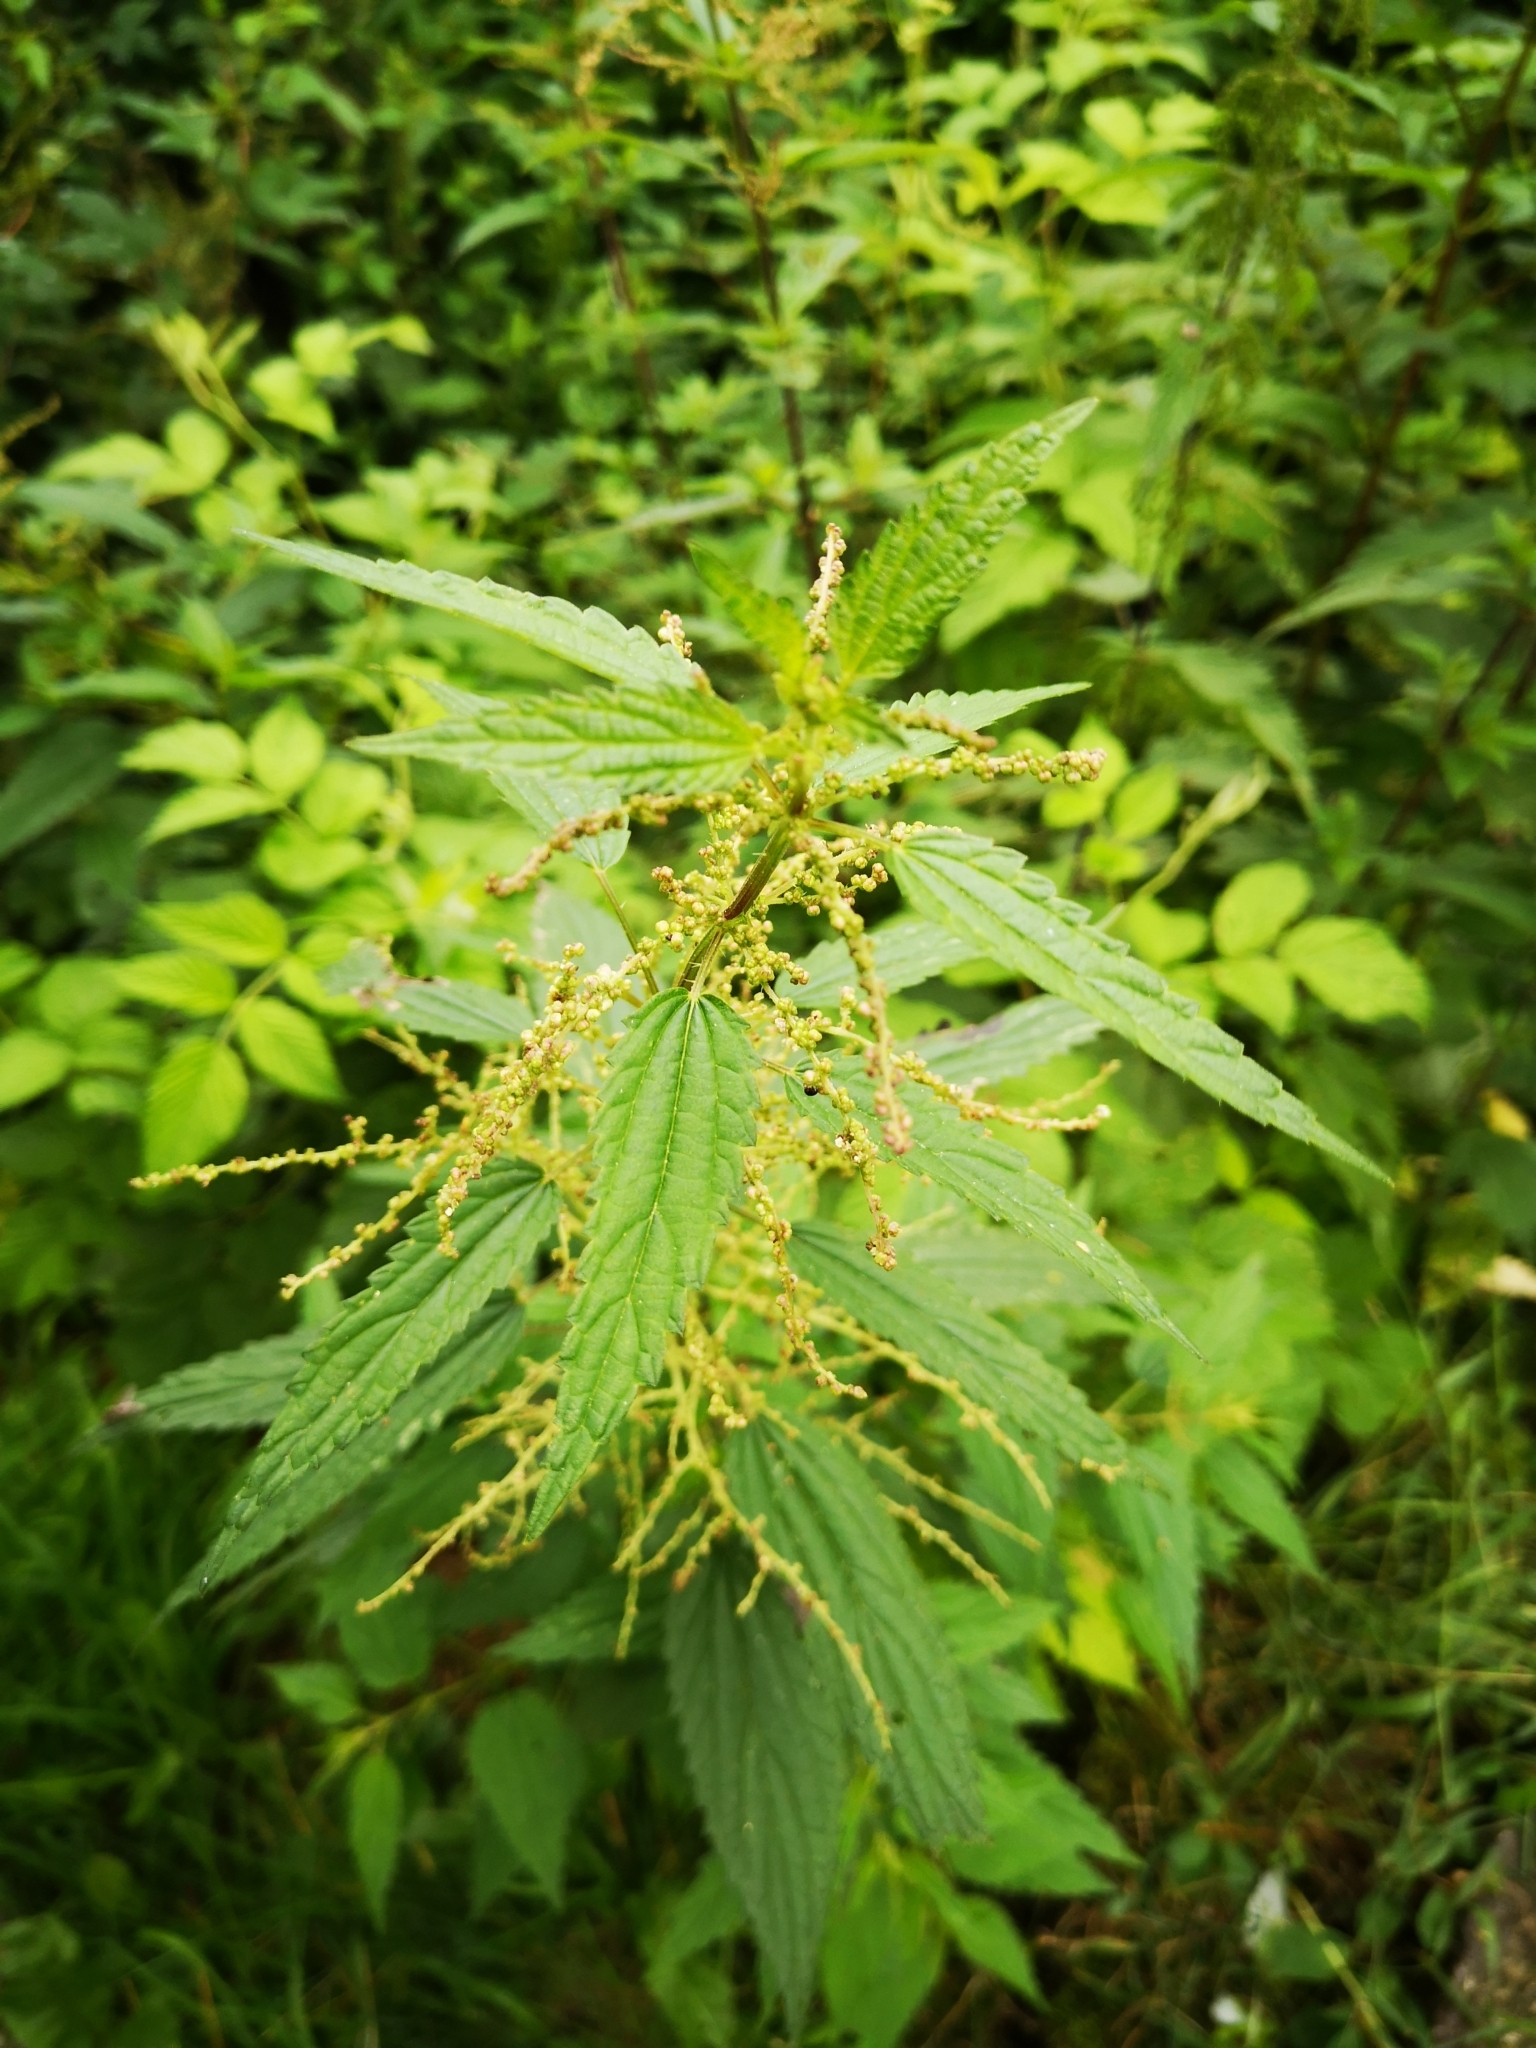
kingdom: Plantae
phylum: Tracheophyta
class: Magnoliopsida
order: Rosales
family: Urticaceae
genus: Urtica
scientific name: Urtica dioica
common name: Common nettle
